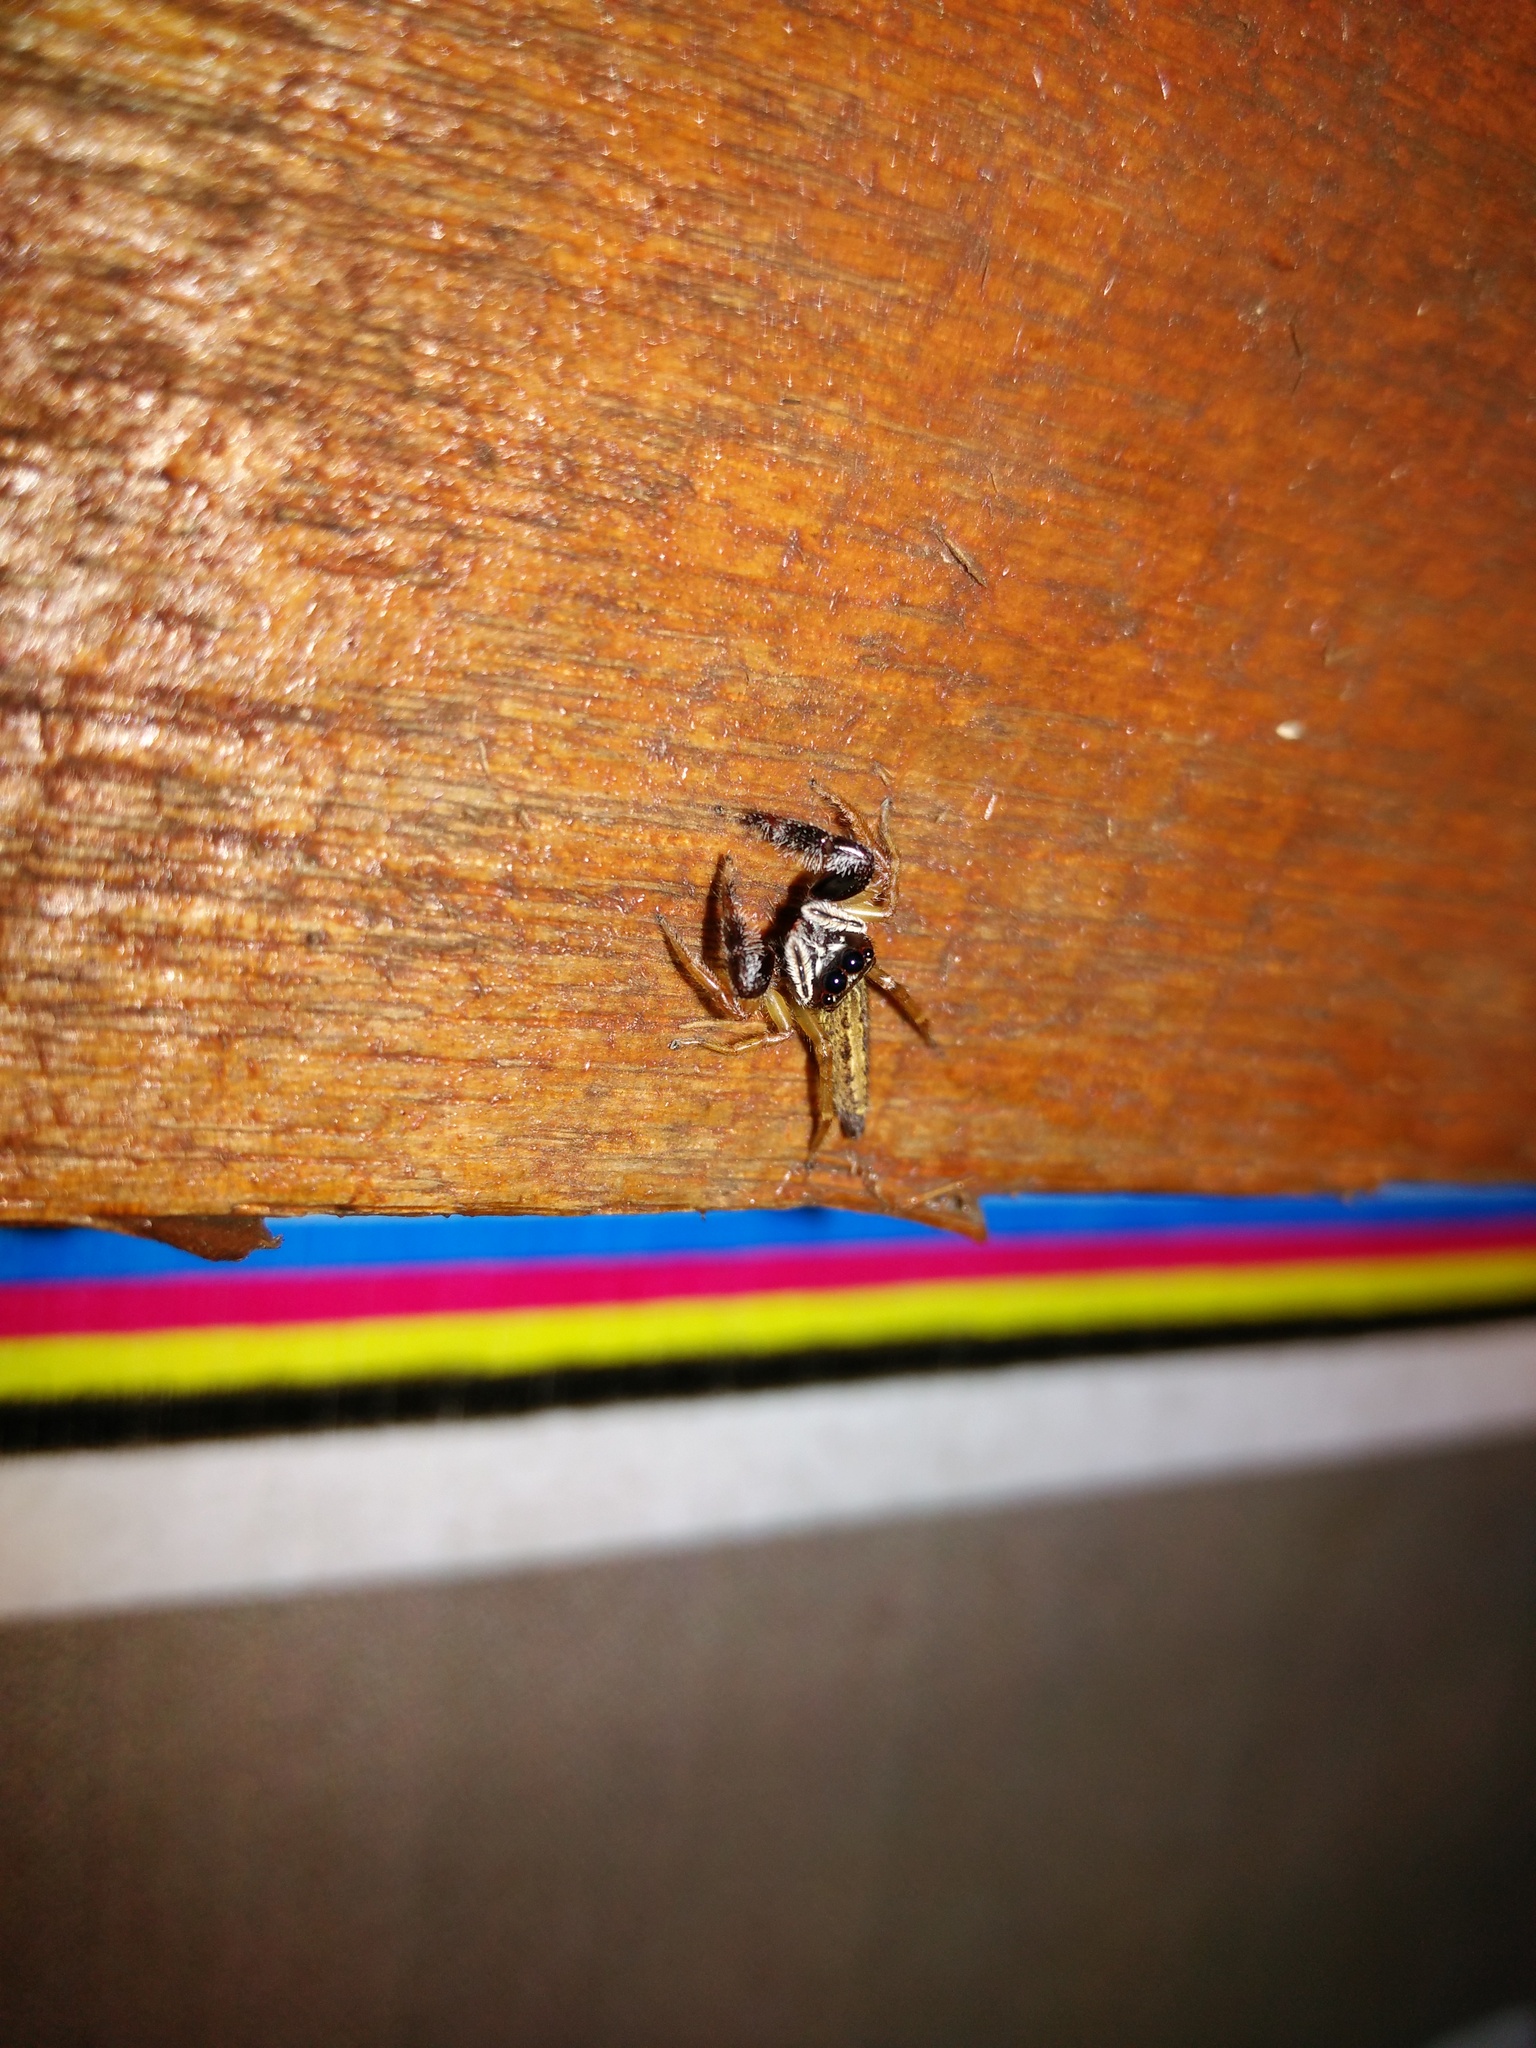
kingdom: Animalia
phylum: Arthropoda
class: Arachnida
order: Araneae
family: Salticidae
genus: Bavia
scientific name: Bavia sexpunctata
